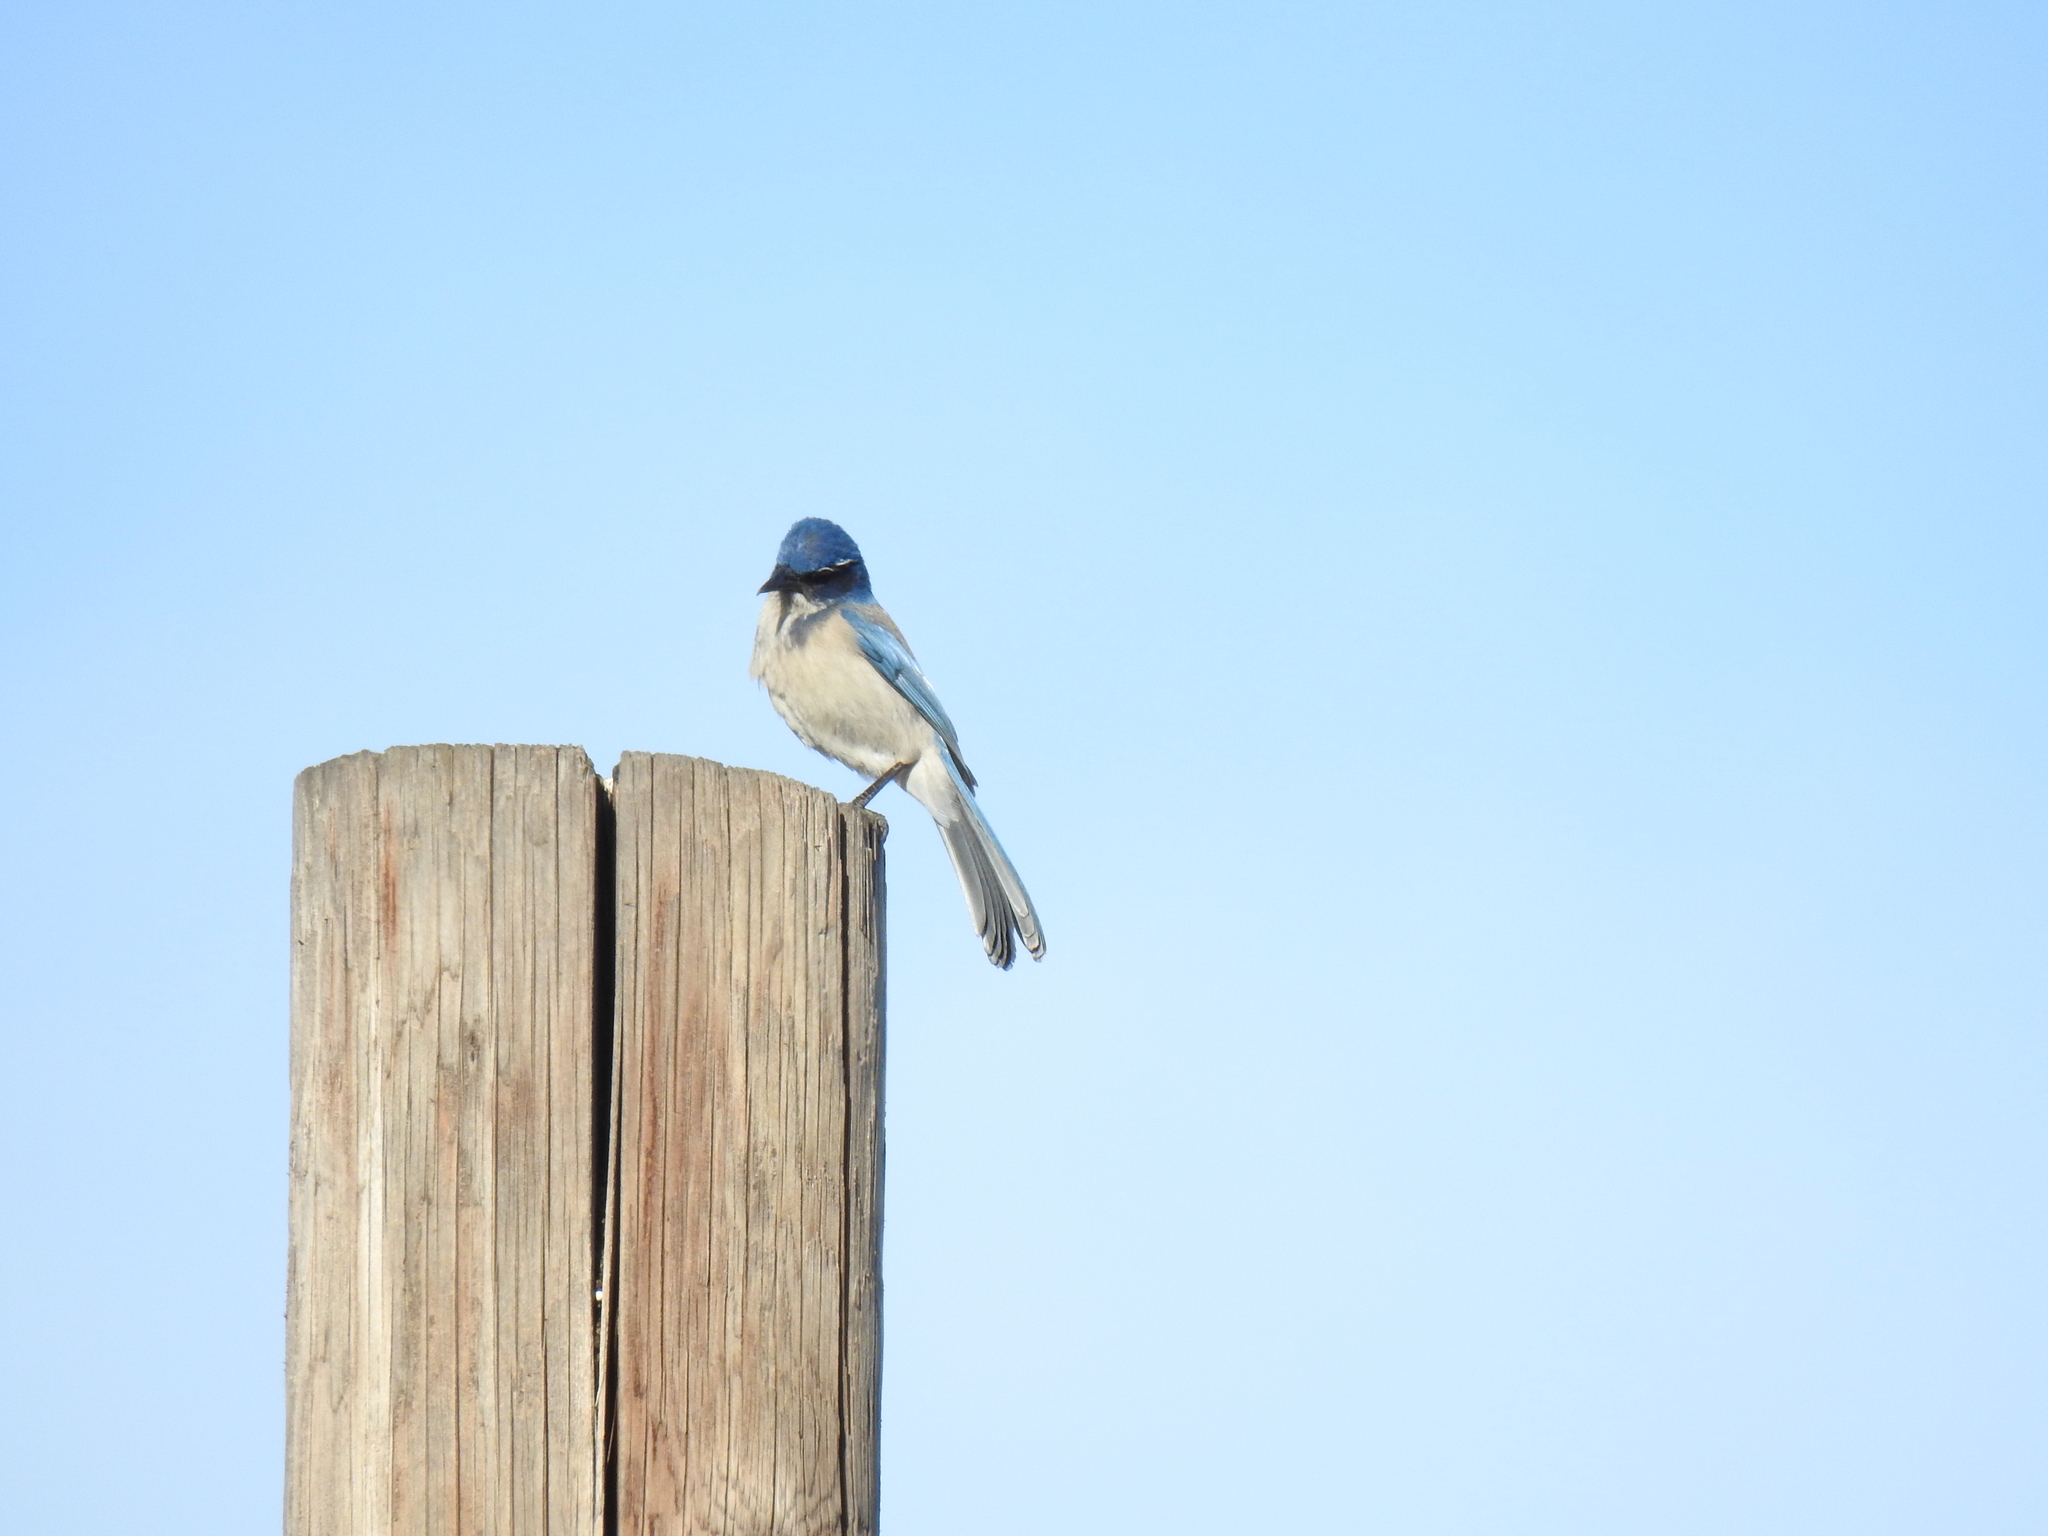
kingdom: Animalia
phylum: Chordata
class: Aves
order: Passeriformes
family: Corvidae
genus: Aphelocoma
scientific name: Aphelocoma californica
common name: California scrub-jay
